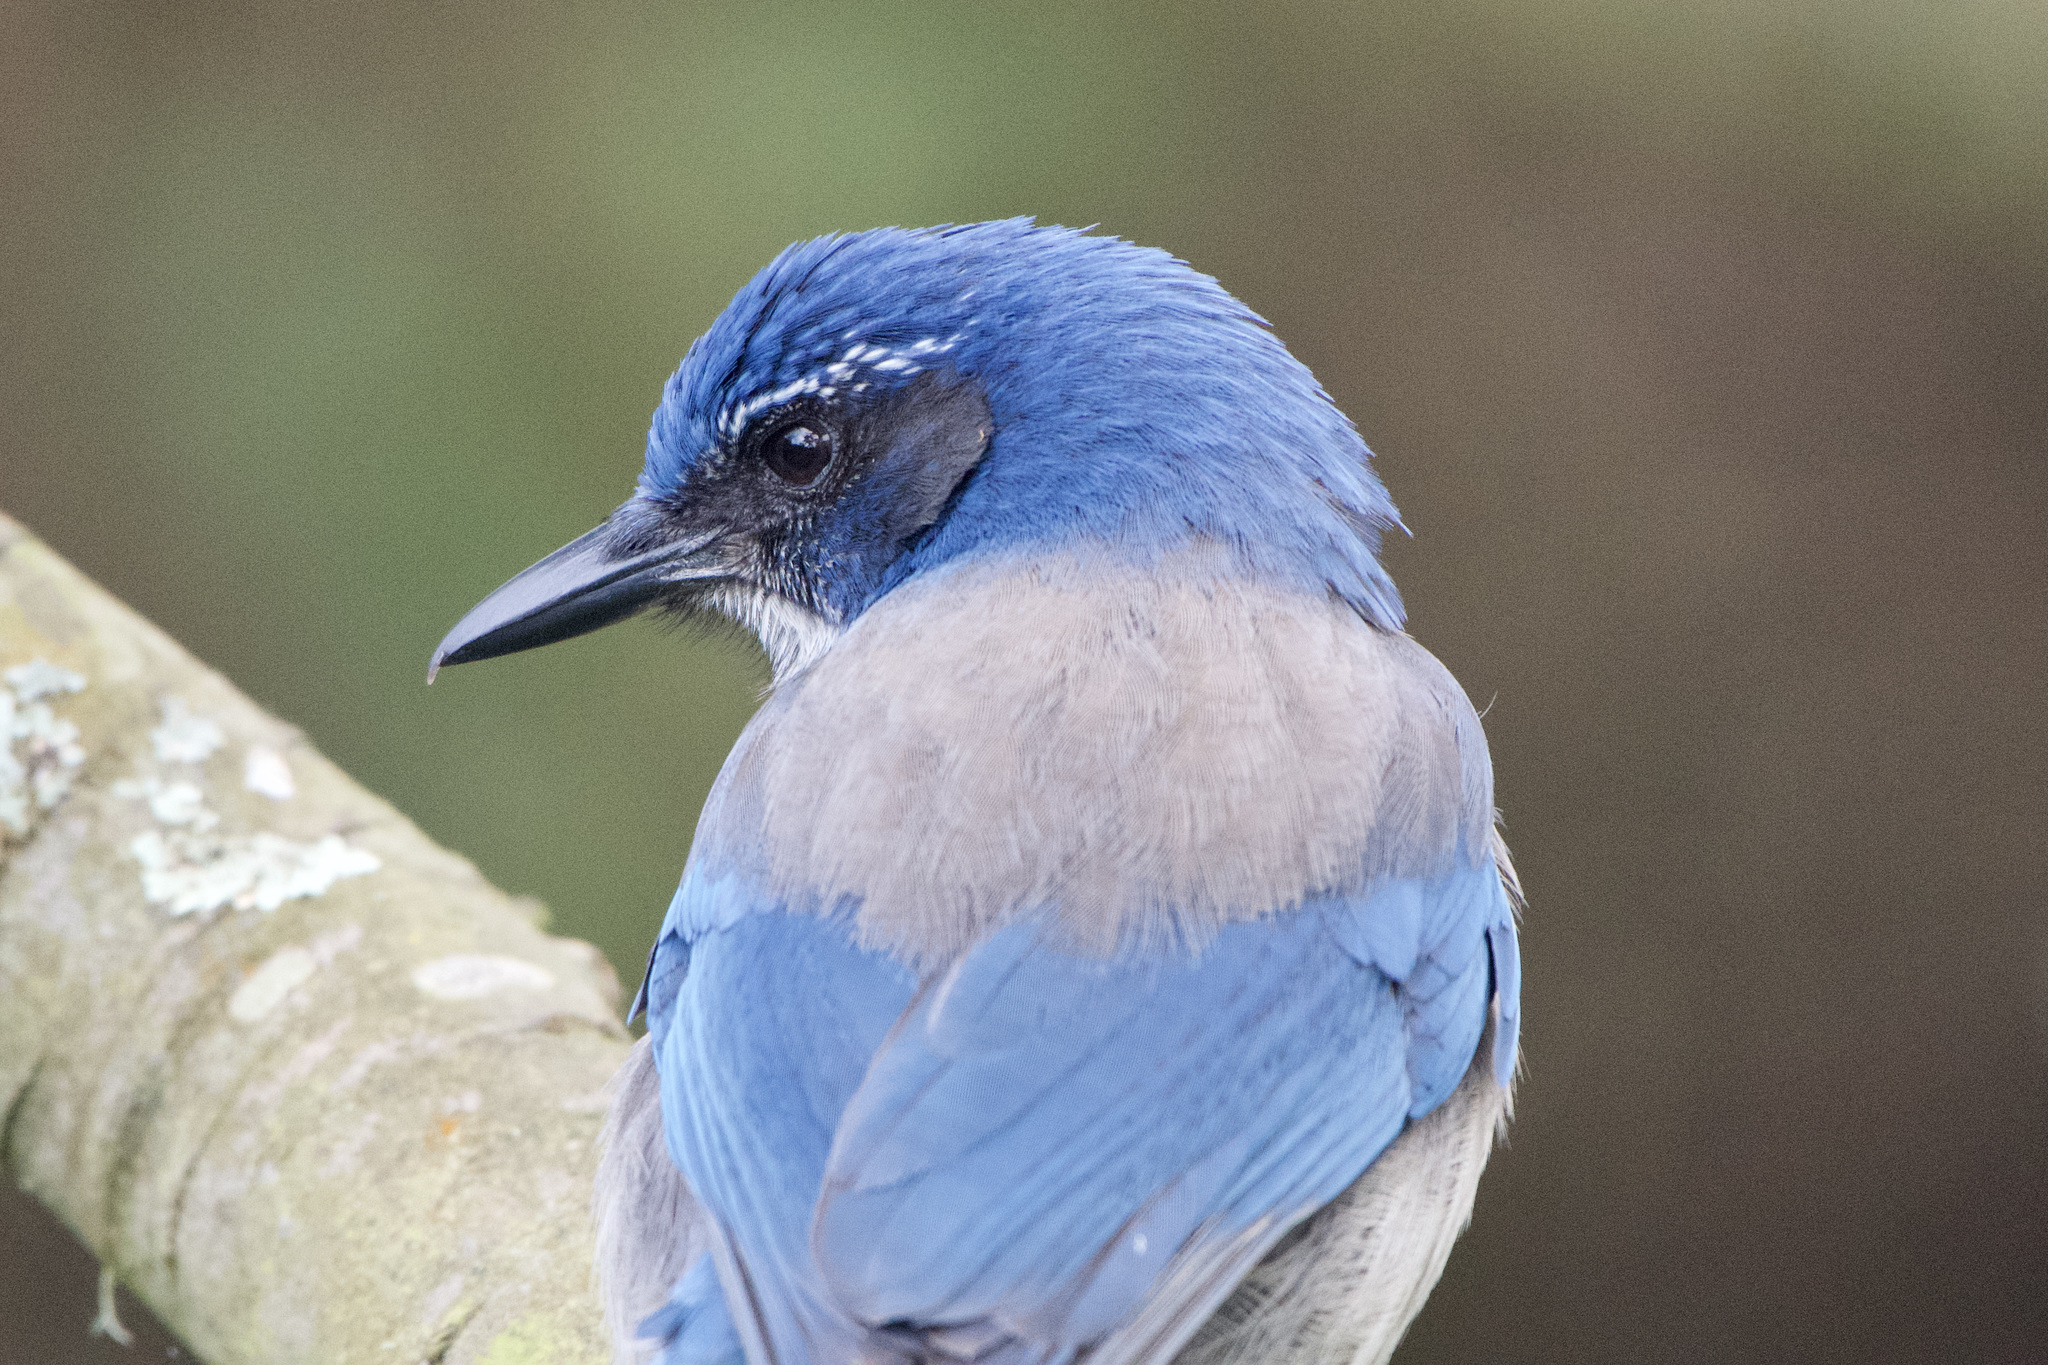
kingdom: Animalia
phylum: Chordata
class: Aves
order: Passeriformes
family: Corvidae
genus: Aphelocoma
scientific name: Aphelocoma californica
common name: California scrub-jay
